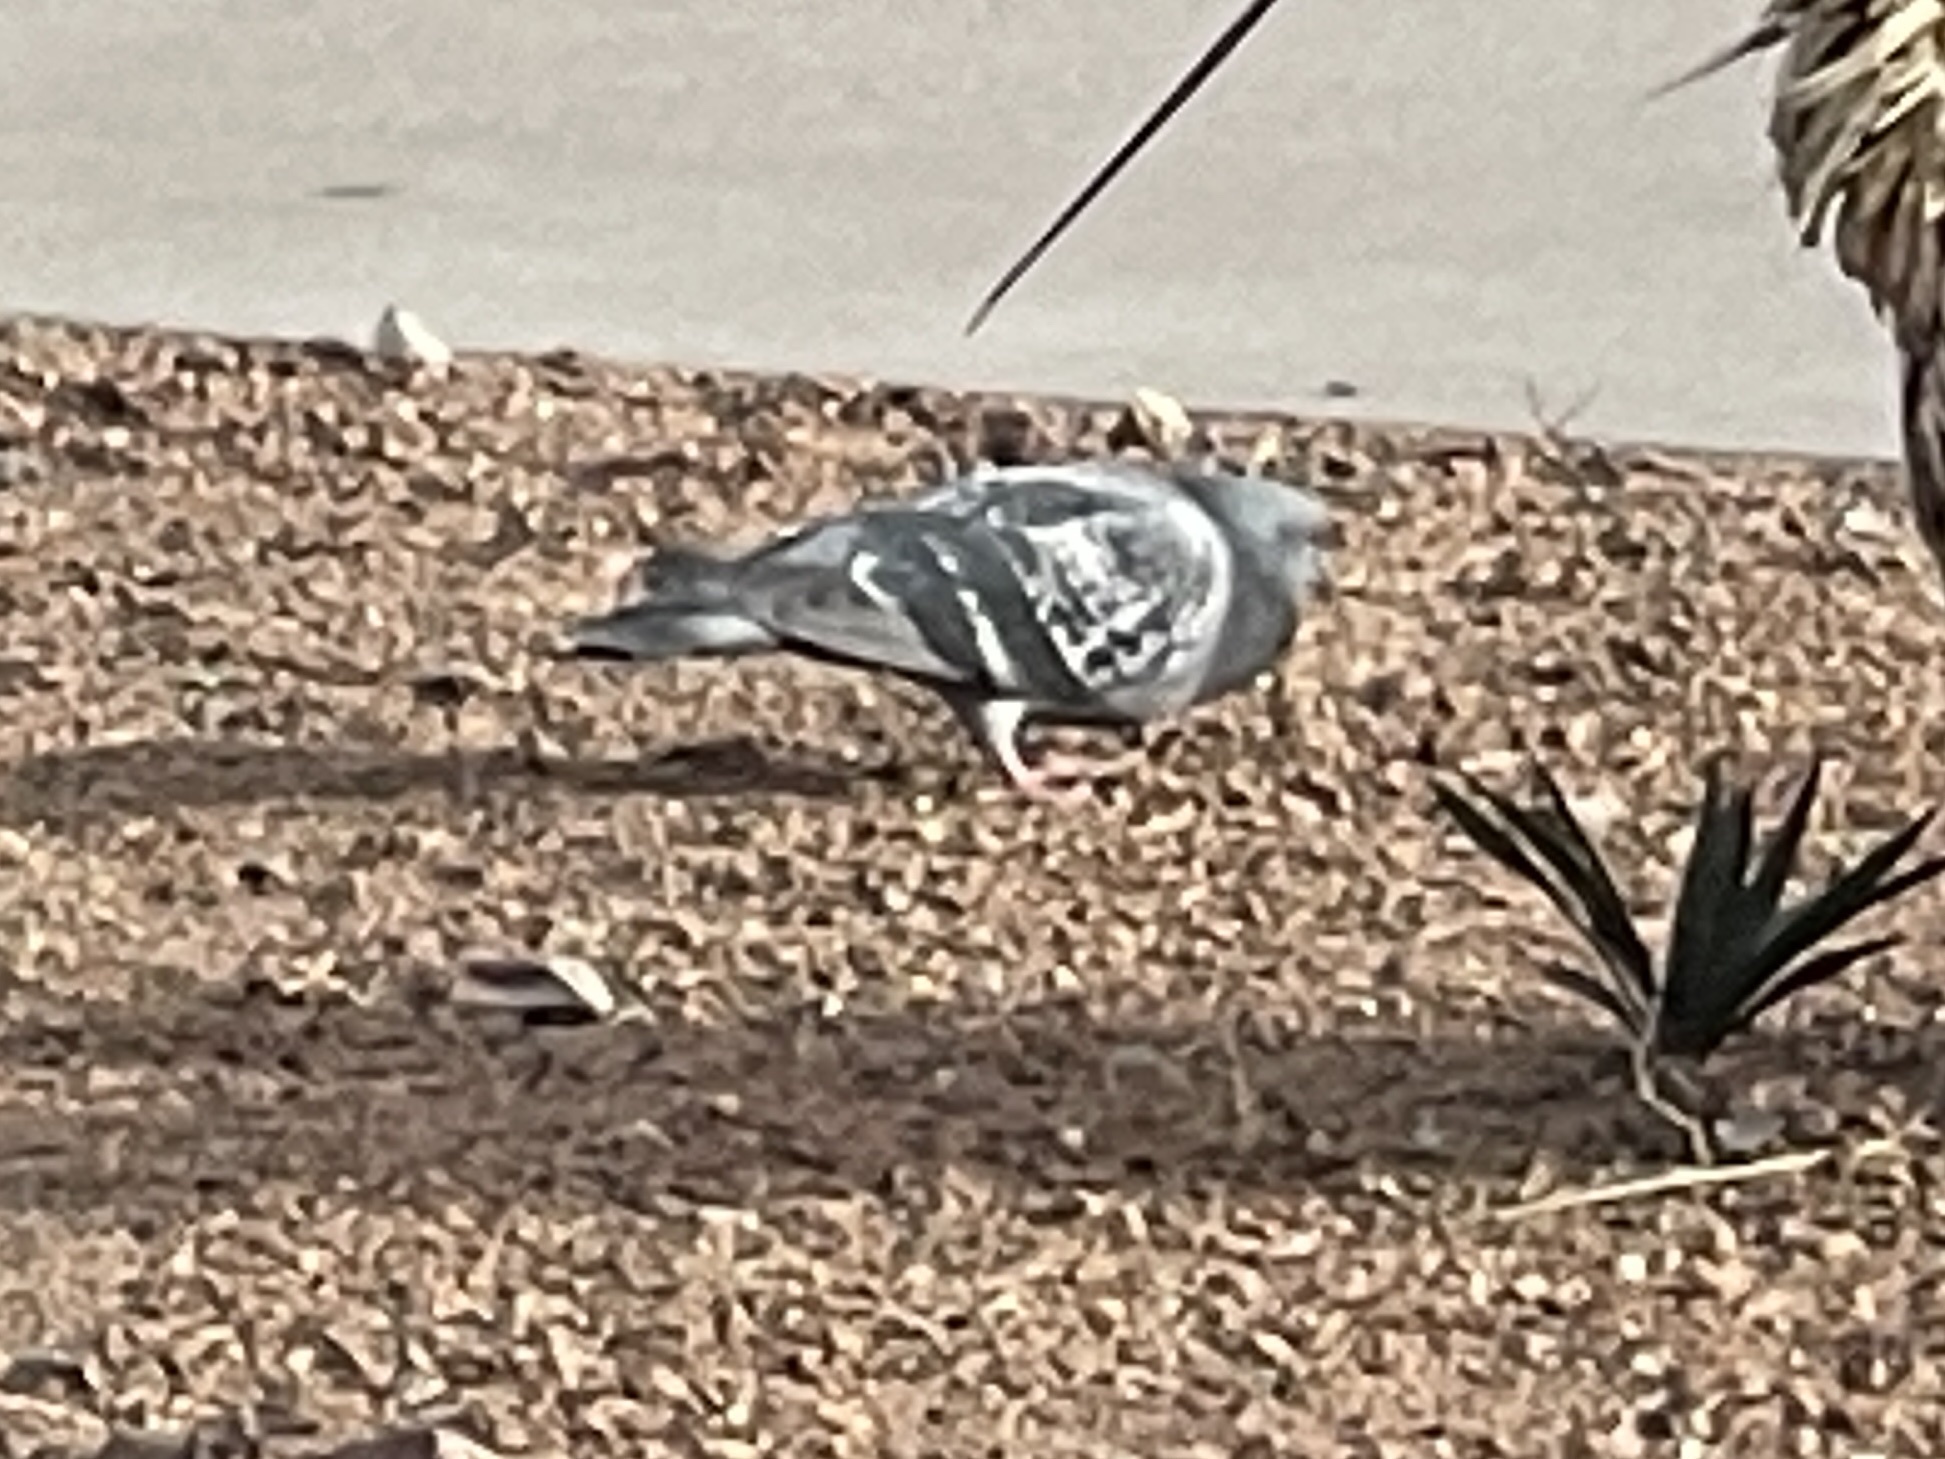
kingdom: Animalia
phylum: Chordata
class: Aves
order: Columbiformes
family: Columbidae
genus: Columba
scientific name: Columba livia
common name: Rock pigeon
